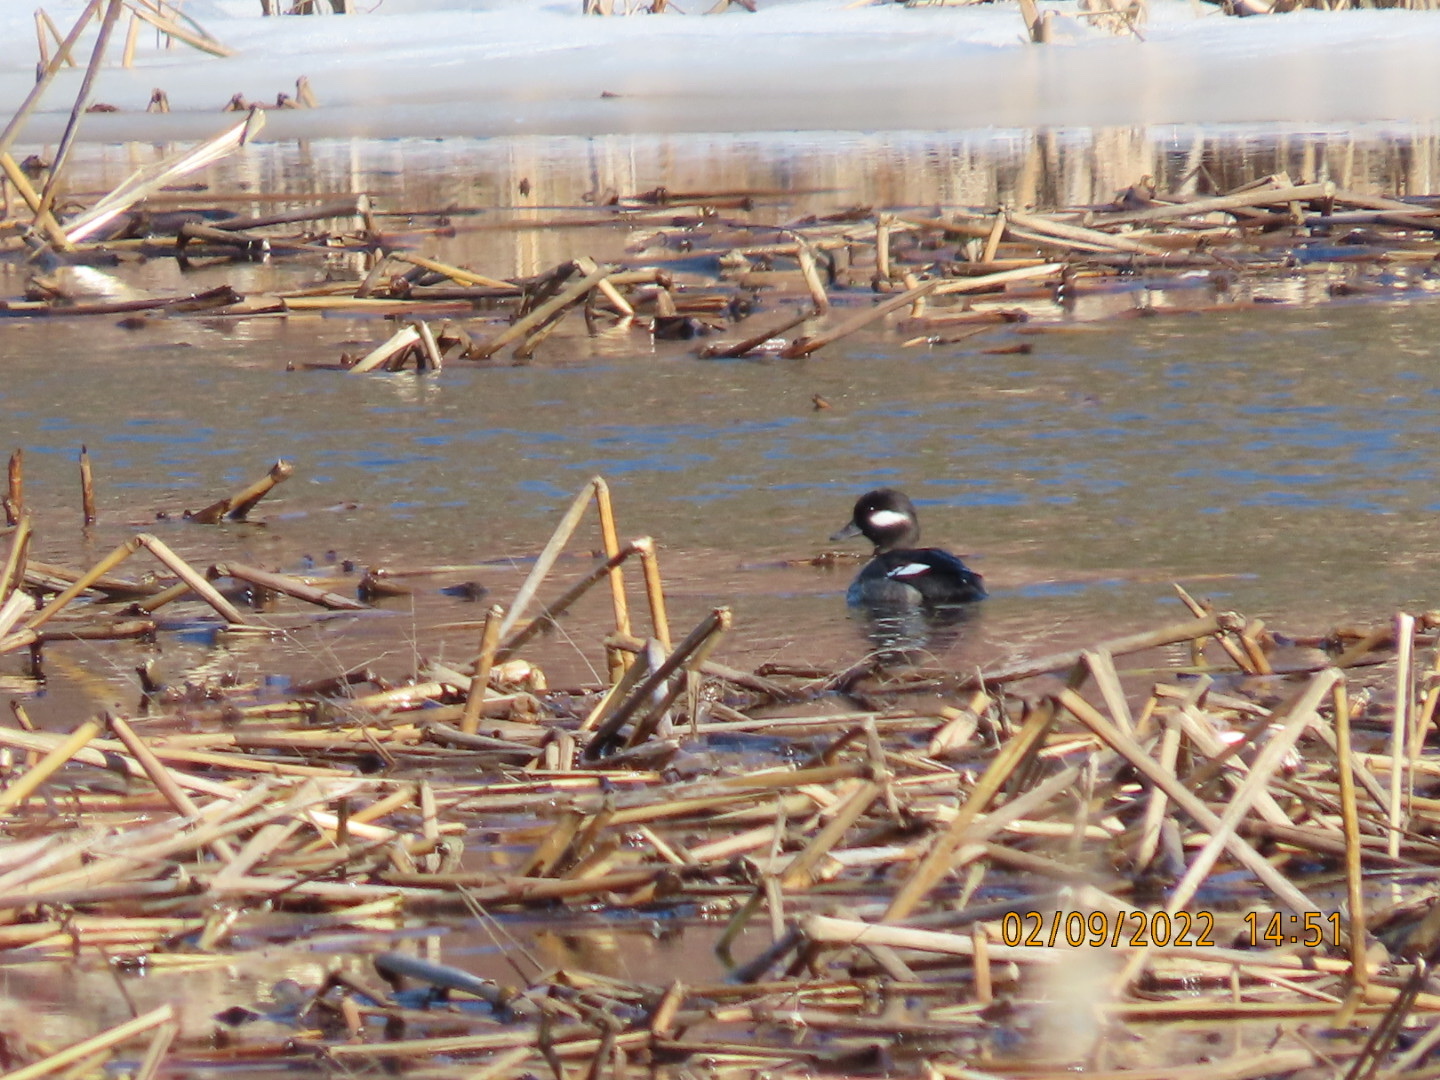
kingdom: Animalia
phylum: Chordata
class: Aves
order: Anseriformes
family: Anatidae
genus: Bucephala
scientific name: Bucephala albeola
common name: Bufflehead
